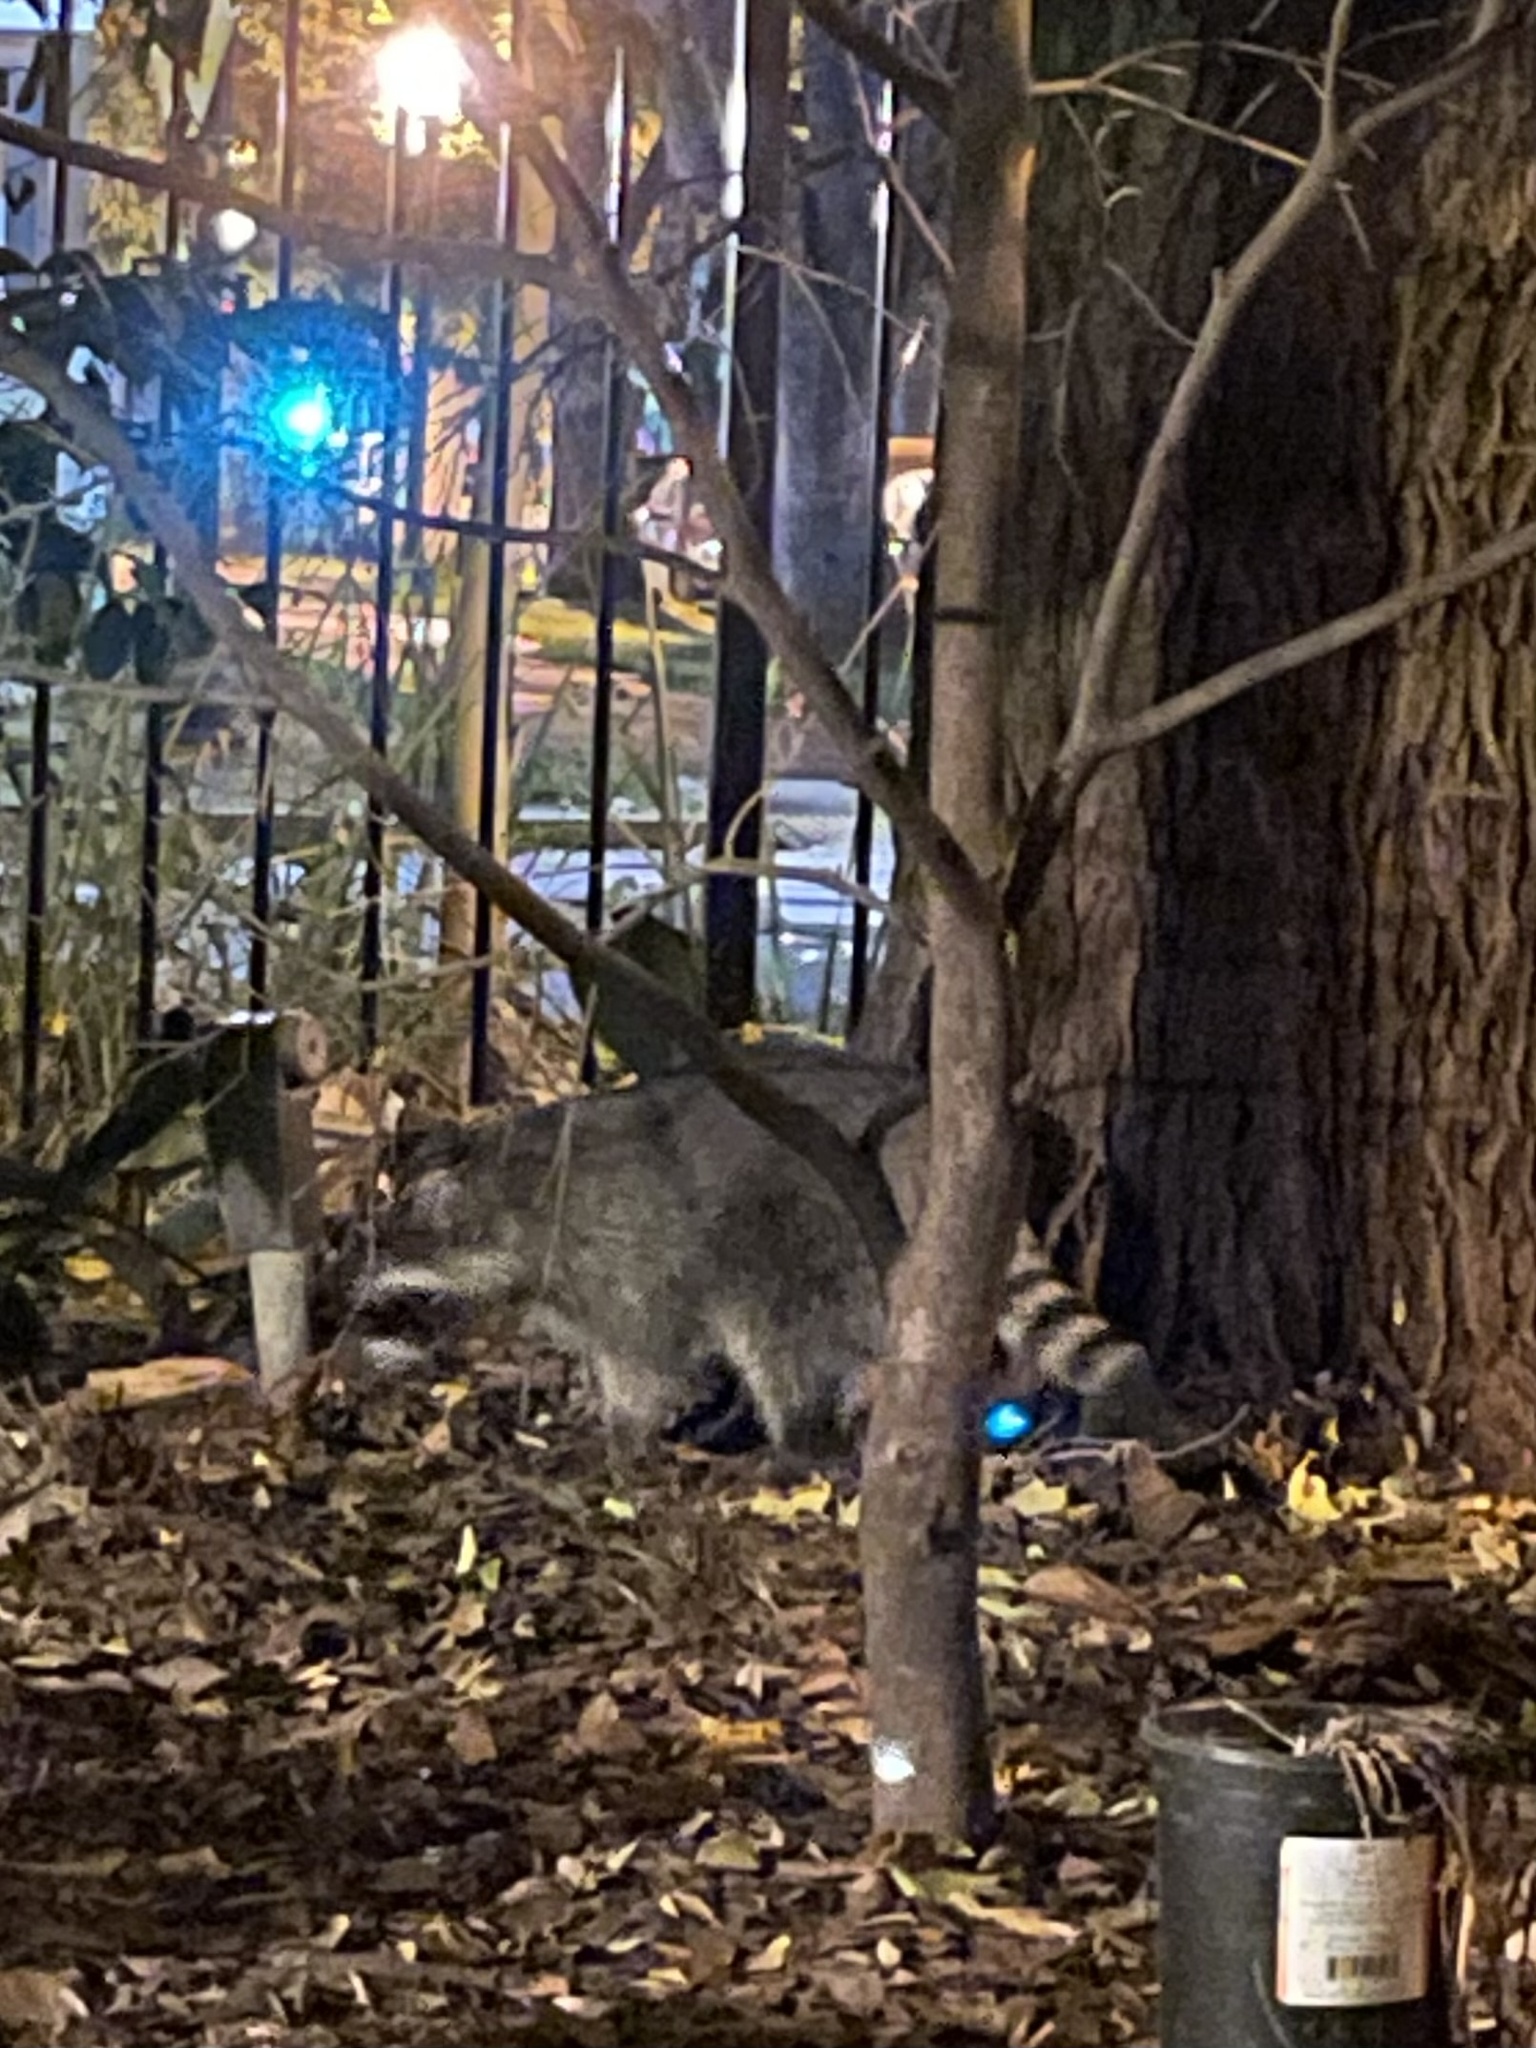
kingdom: Animalia
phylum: Chordata
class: Mammalia
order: Carnivora
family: Procyonidae
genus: Procyon
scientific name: Procyon lotor
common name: Raccoon
